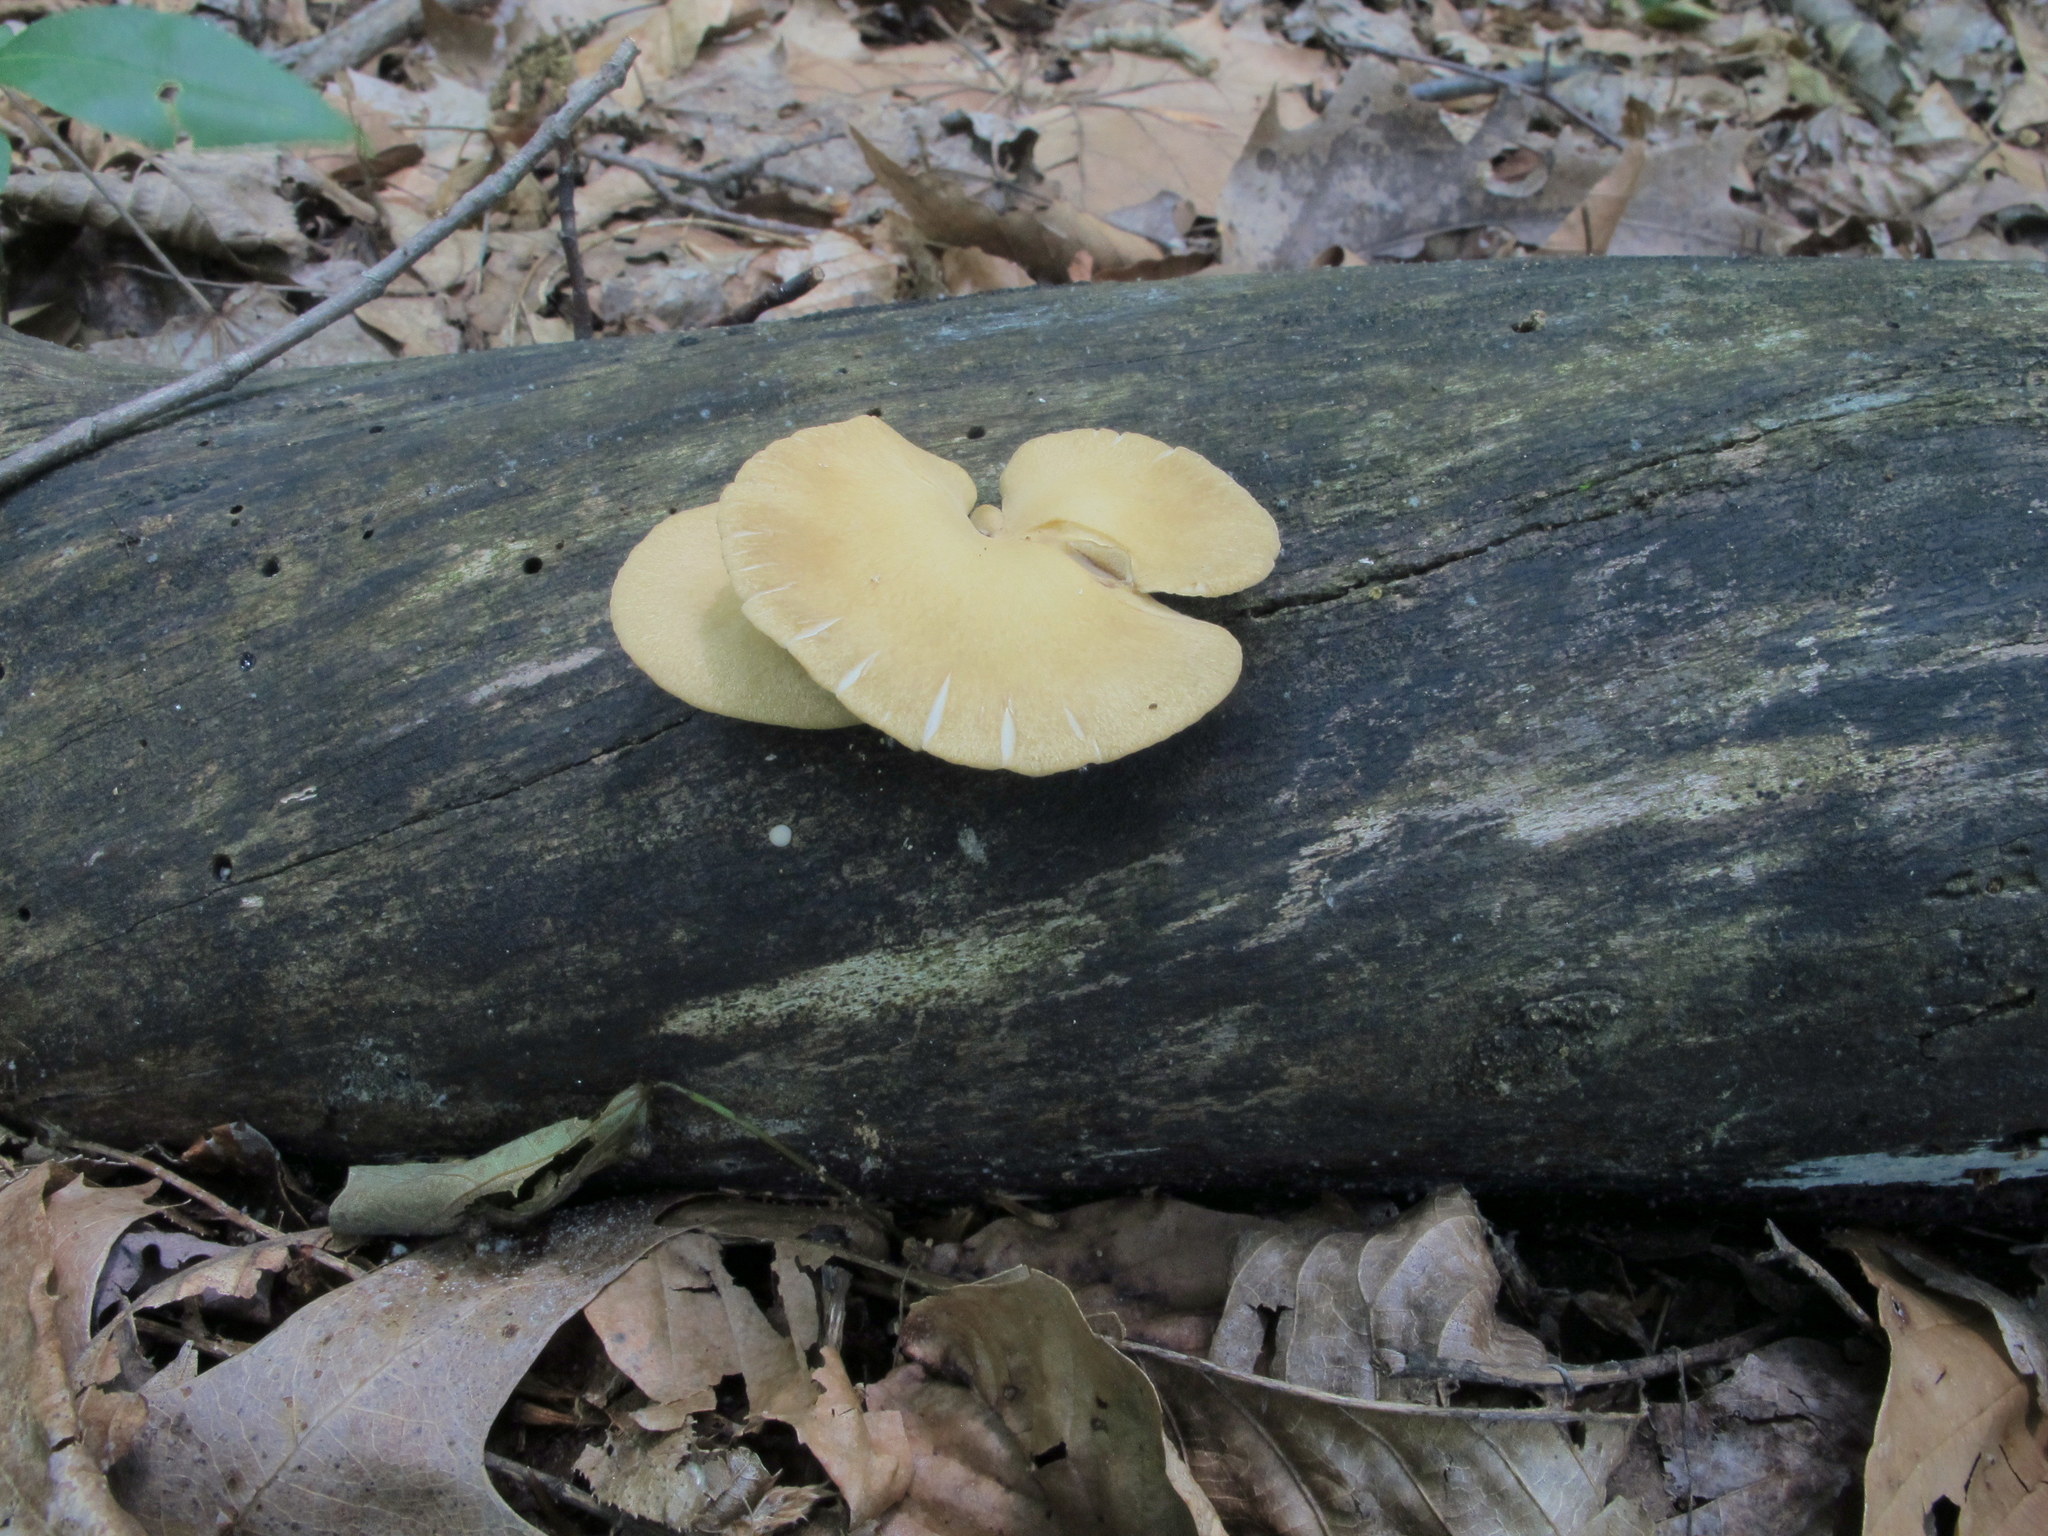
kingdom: Fungi
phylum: Basidiomycota
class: Agaricomycetes
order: Polyporales
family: Polyporaceae
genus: Cerioporus
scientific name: Cerioporus leptocephalus
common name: Blackfoot polypore
